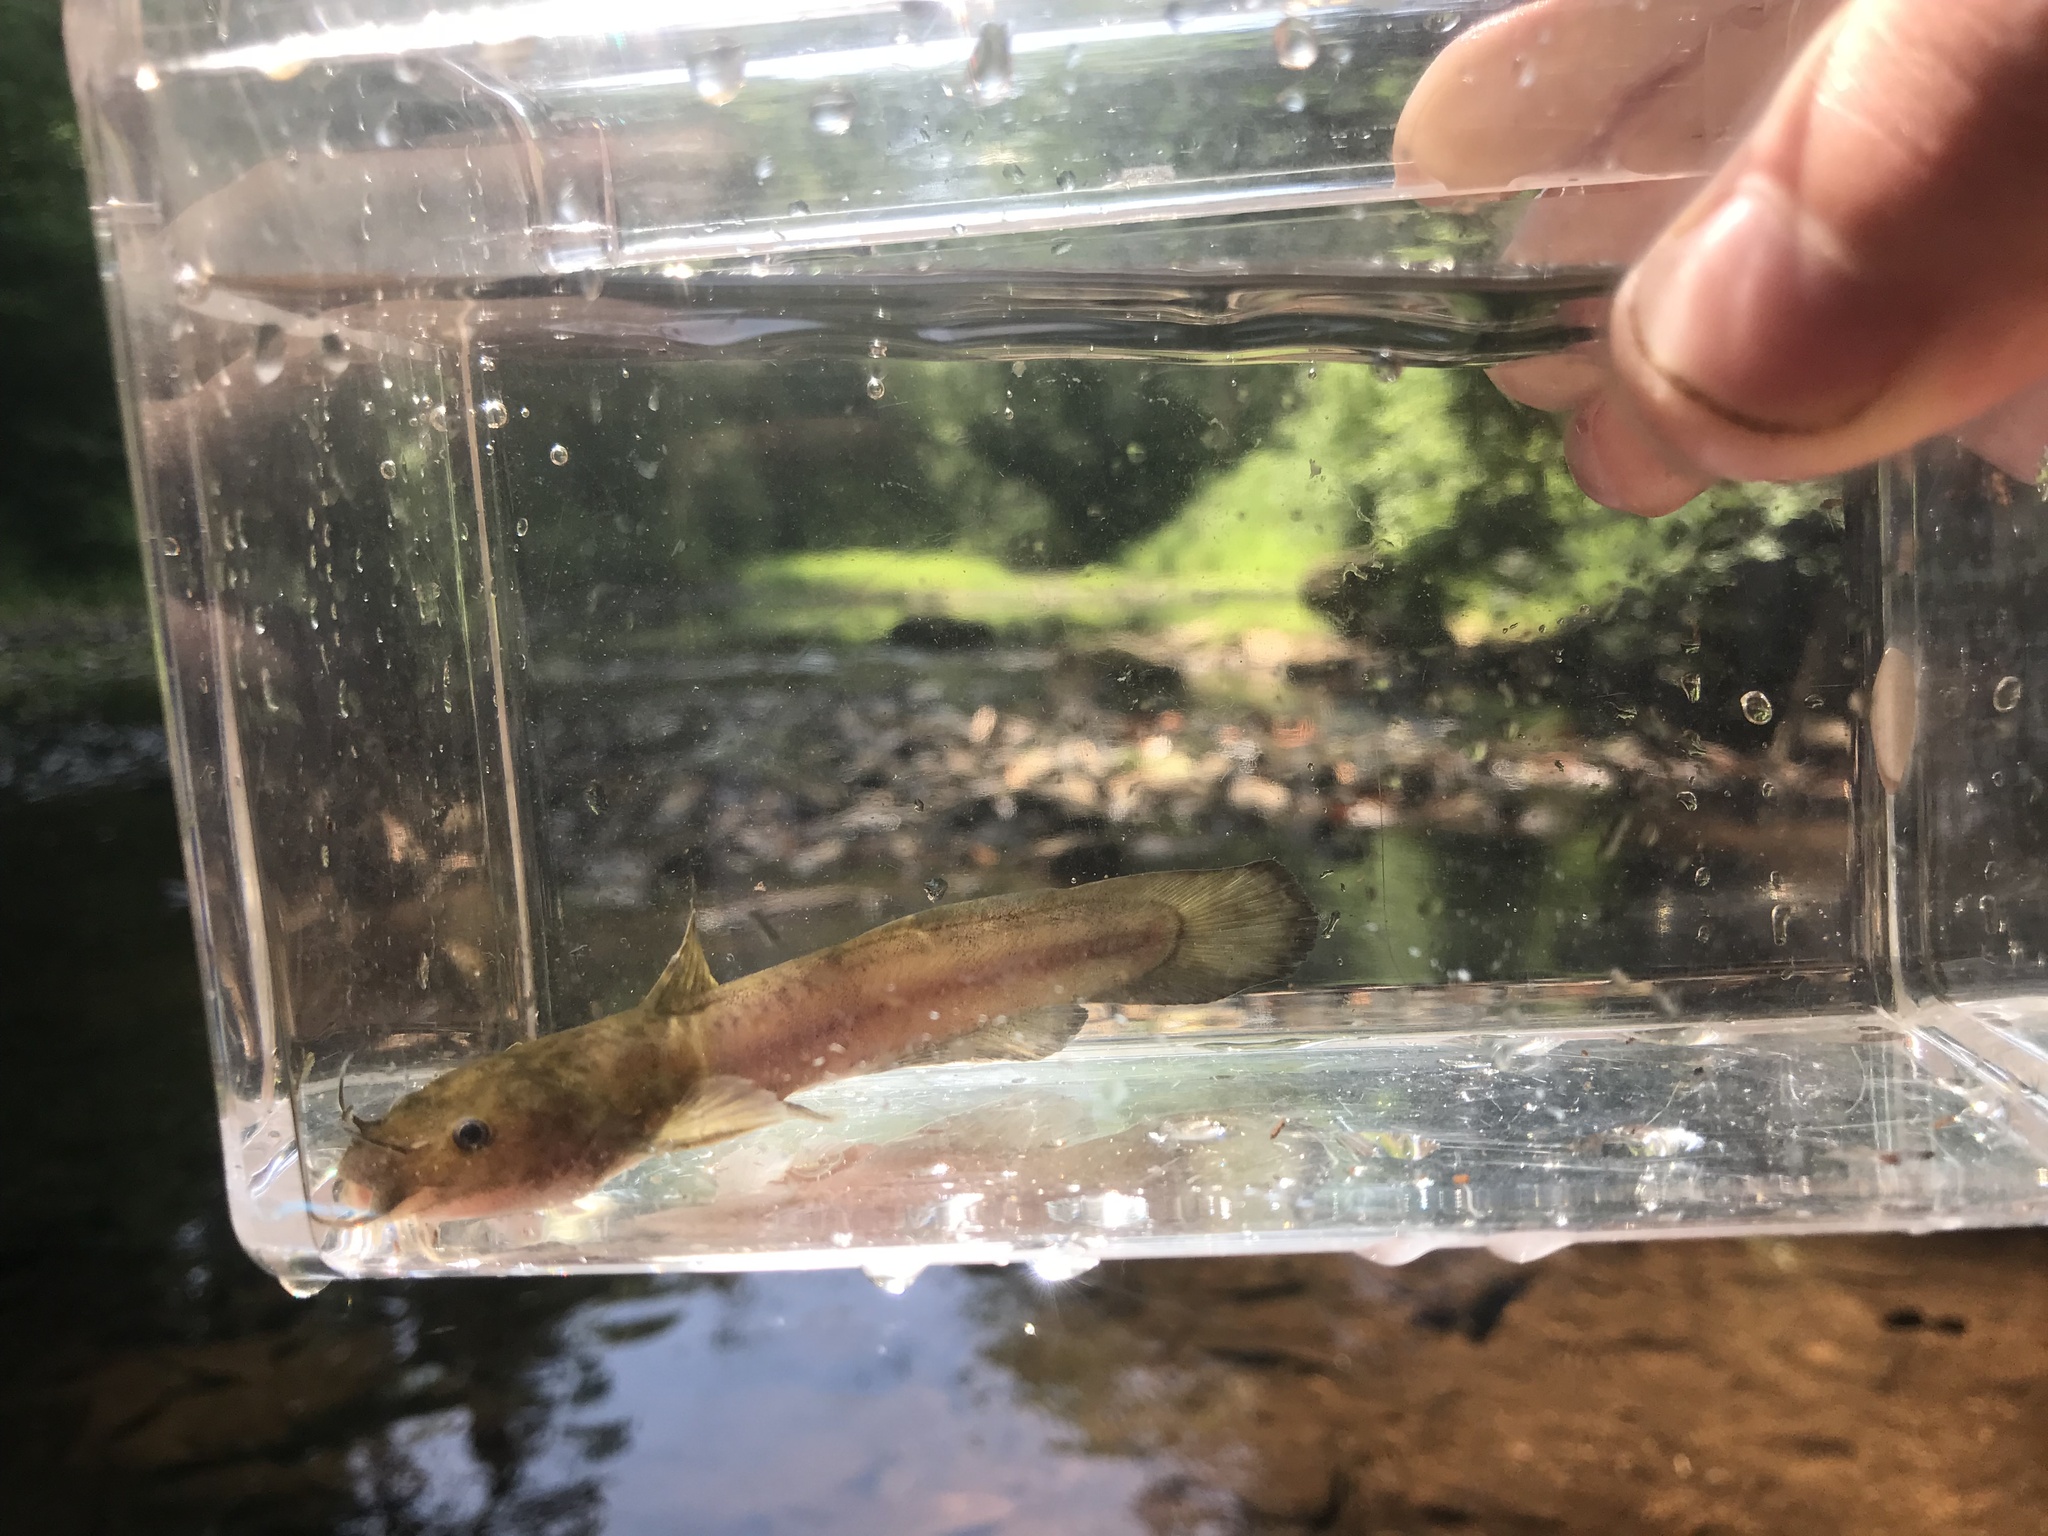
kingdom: Animalia
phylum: Chordata
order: Siluriformes
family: Ictaluridae
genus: Noturus
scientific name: Noturus insignis
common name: Margined madtom
